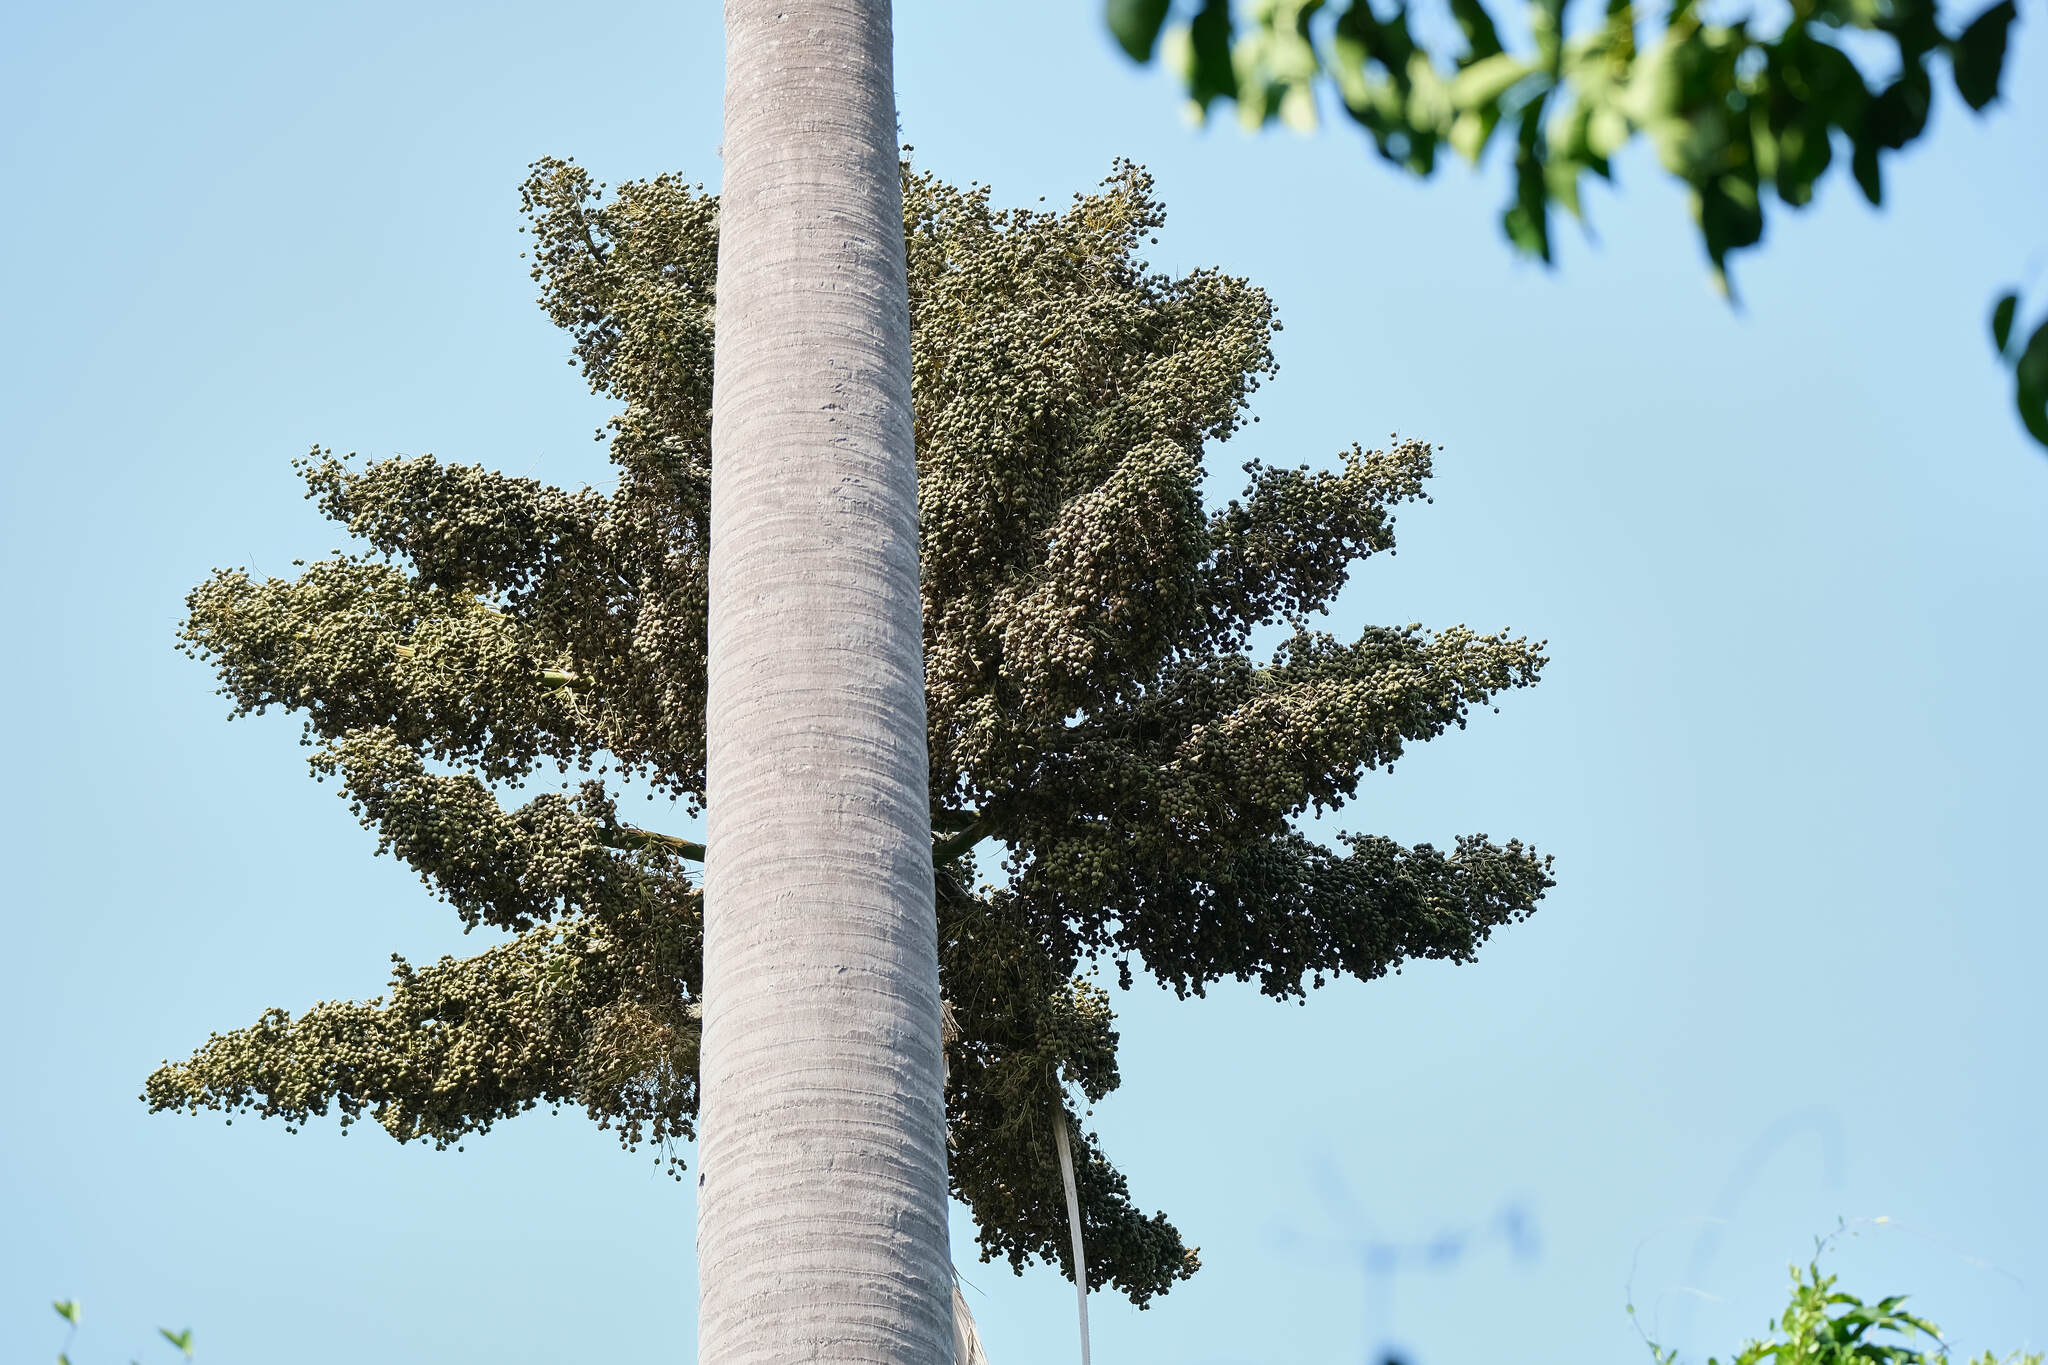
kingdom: Plantae
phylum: Tracheophyta
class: Liliopsida
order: Arecales
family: Arecaceae
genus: Corypha
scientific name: Corypha utan
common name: Buri palm
